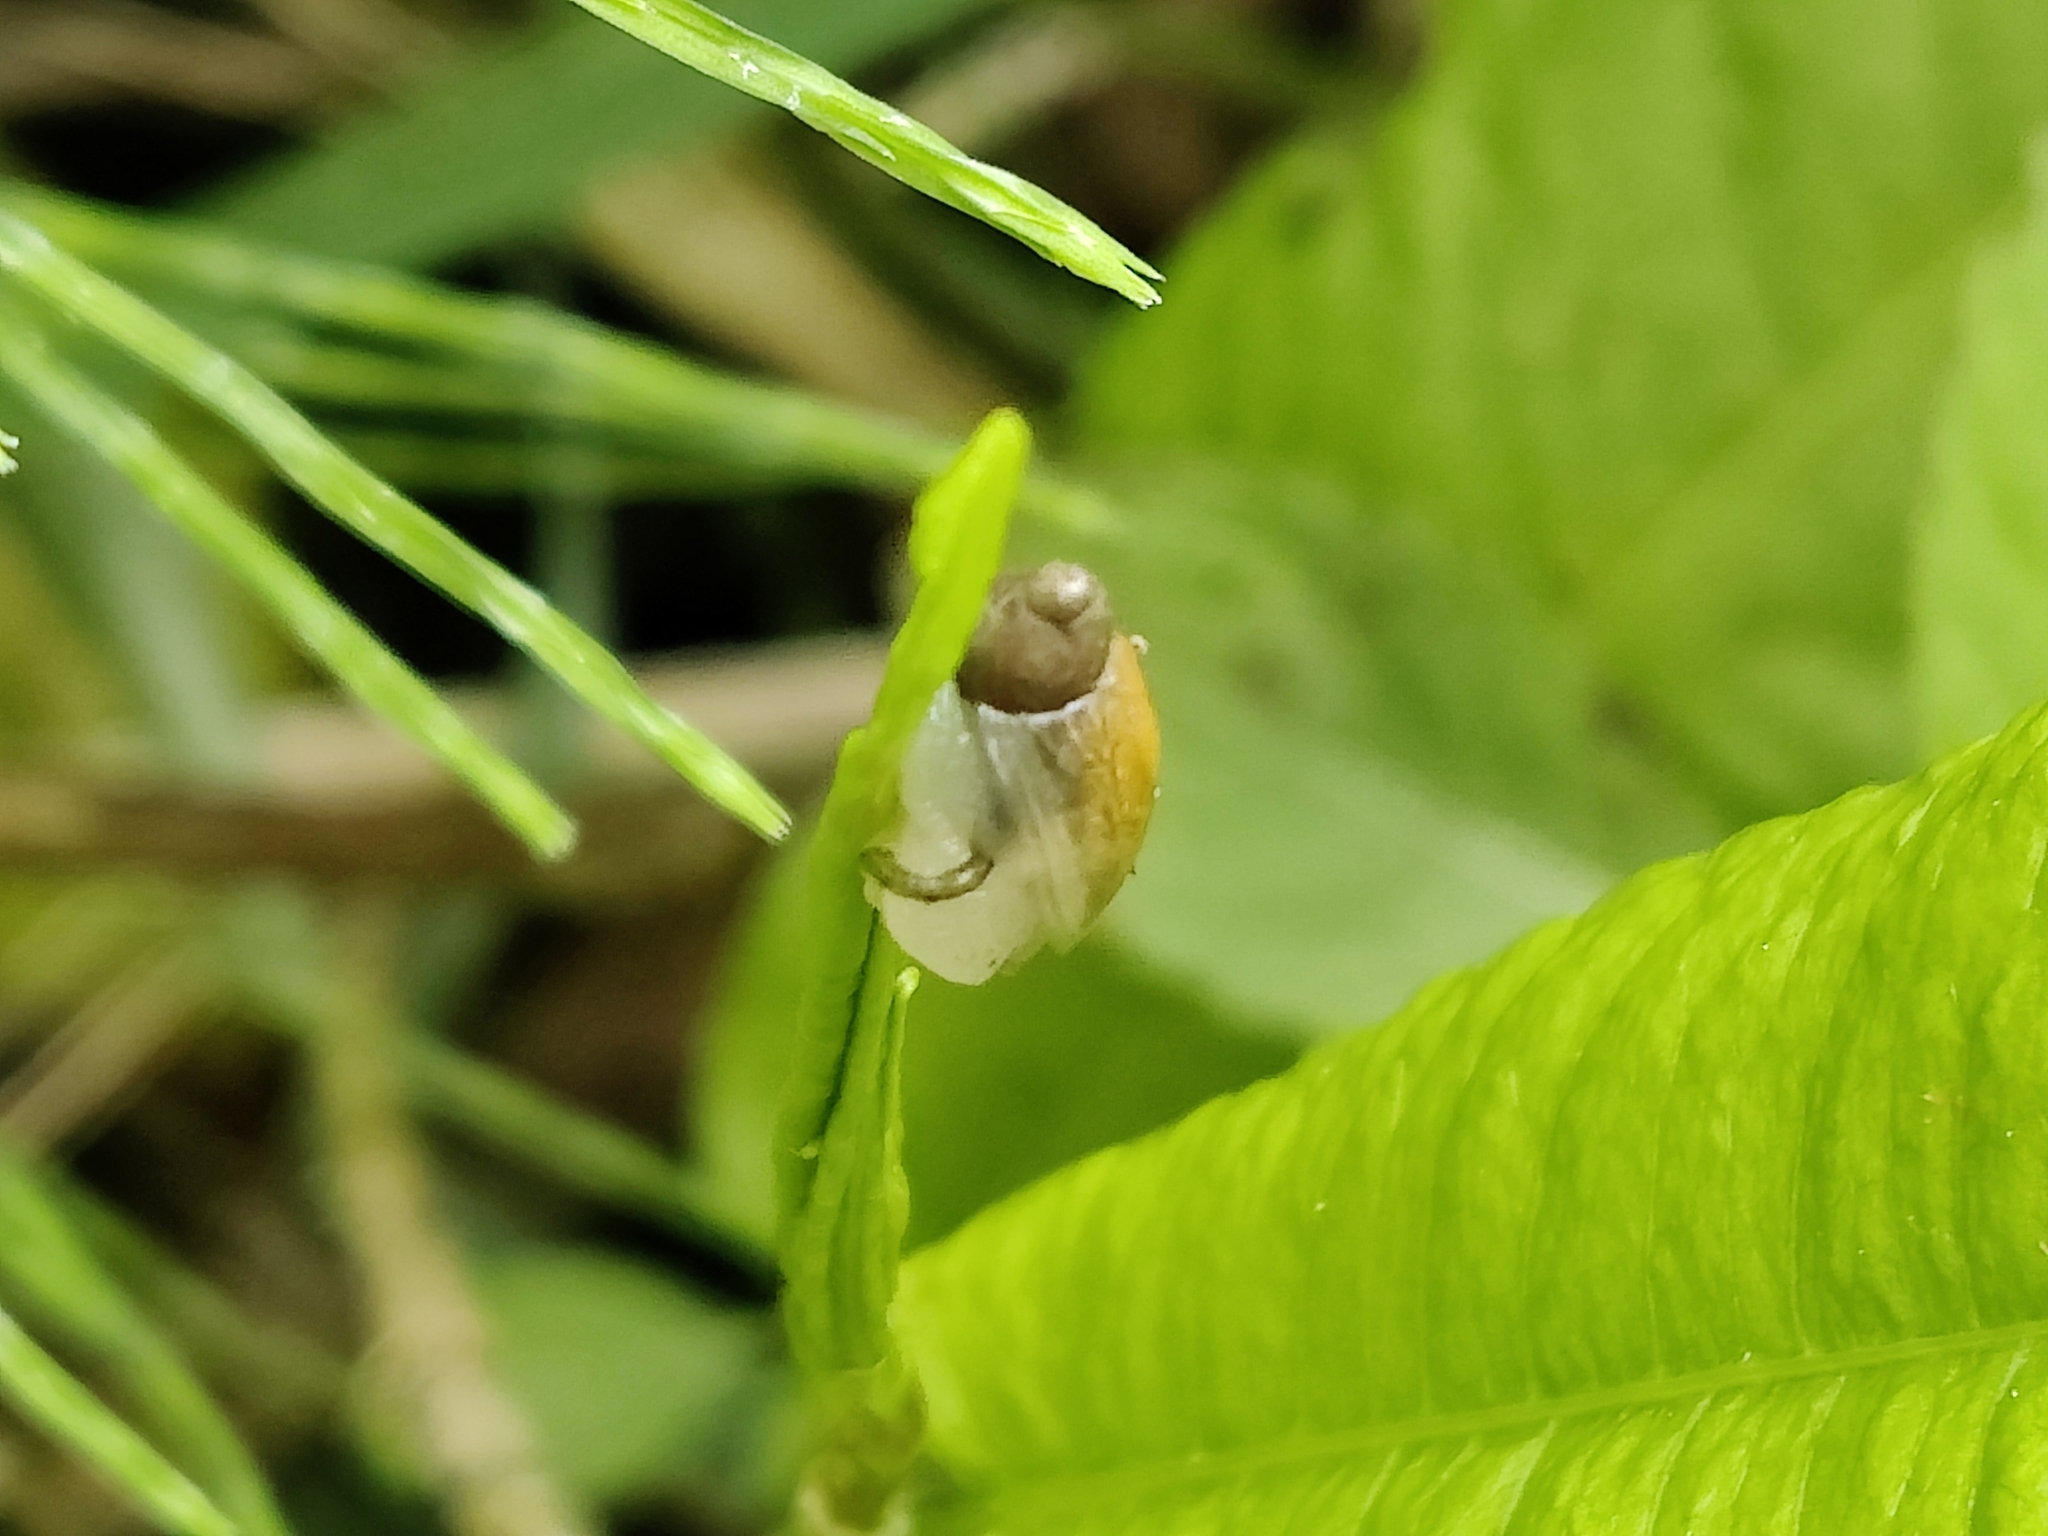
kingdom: Animalia
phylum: Mollusca
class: Gastropoda
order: Stylommatophora
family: Succineidae
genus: Succinea
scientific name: Succinea putris
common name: European ambersnail
